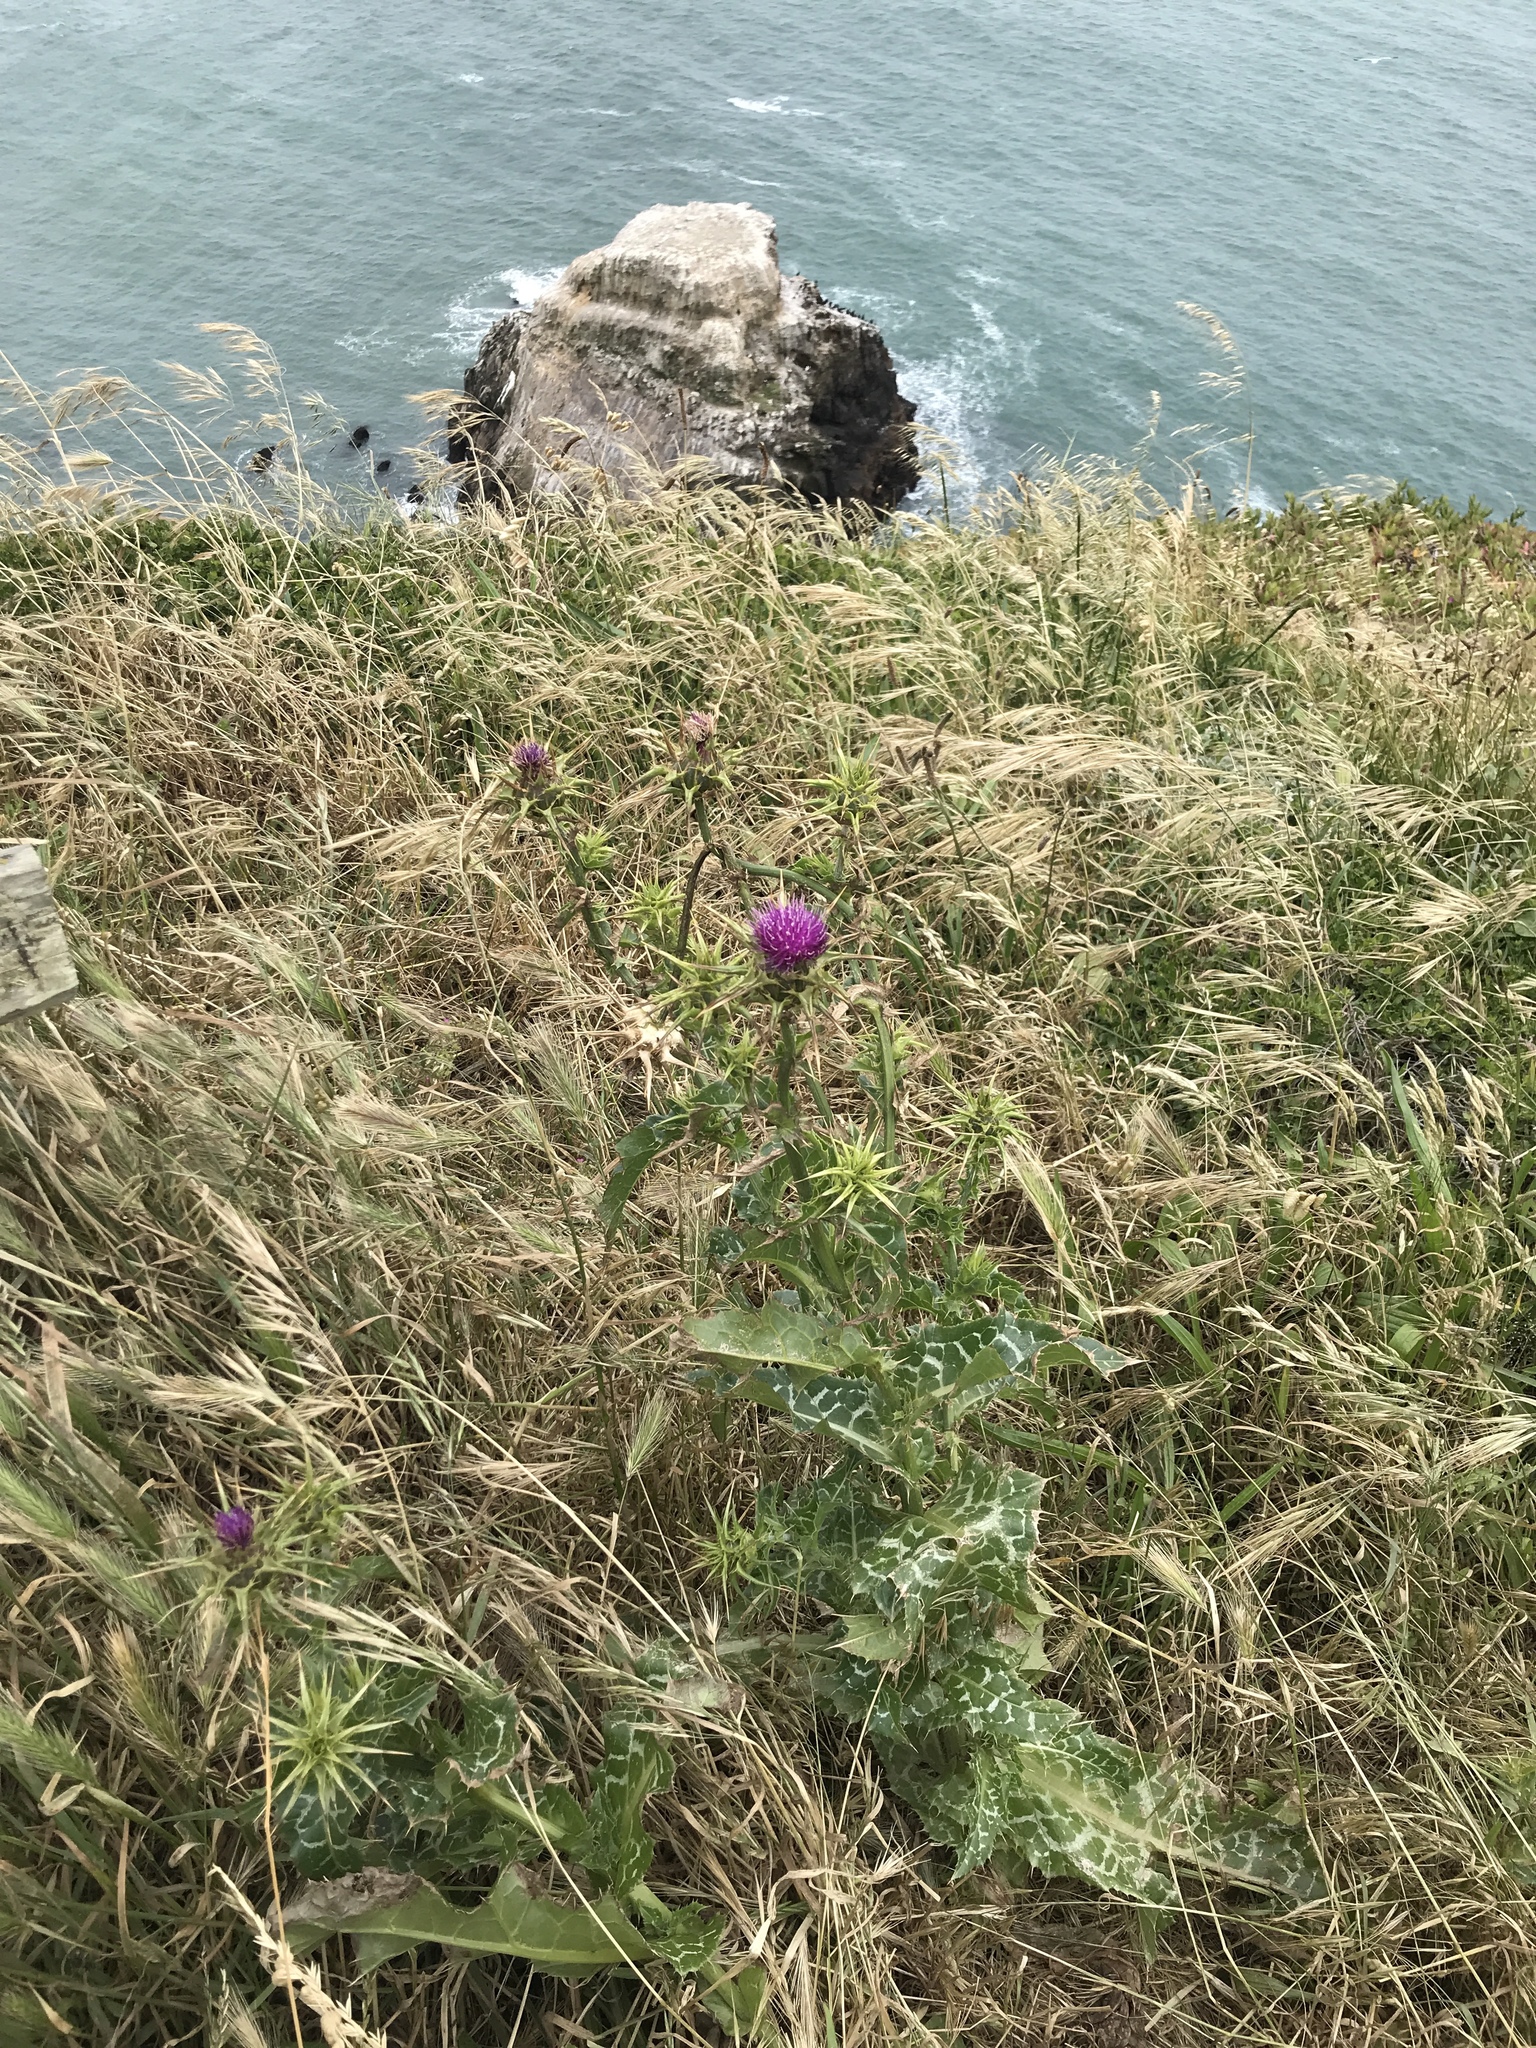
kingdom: Plantae
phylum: Tracheophyta
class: Magnoliopsida
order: Asterales
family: Asteraceae
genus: Silybum
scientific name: Silybum marianum
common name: Milk thistle
